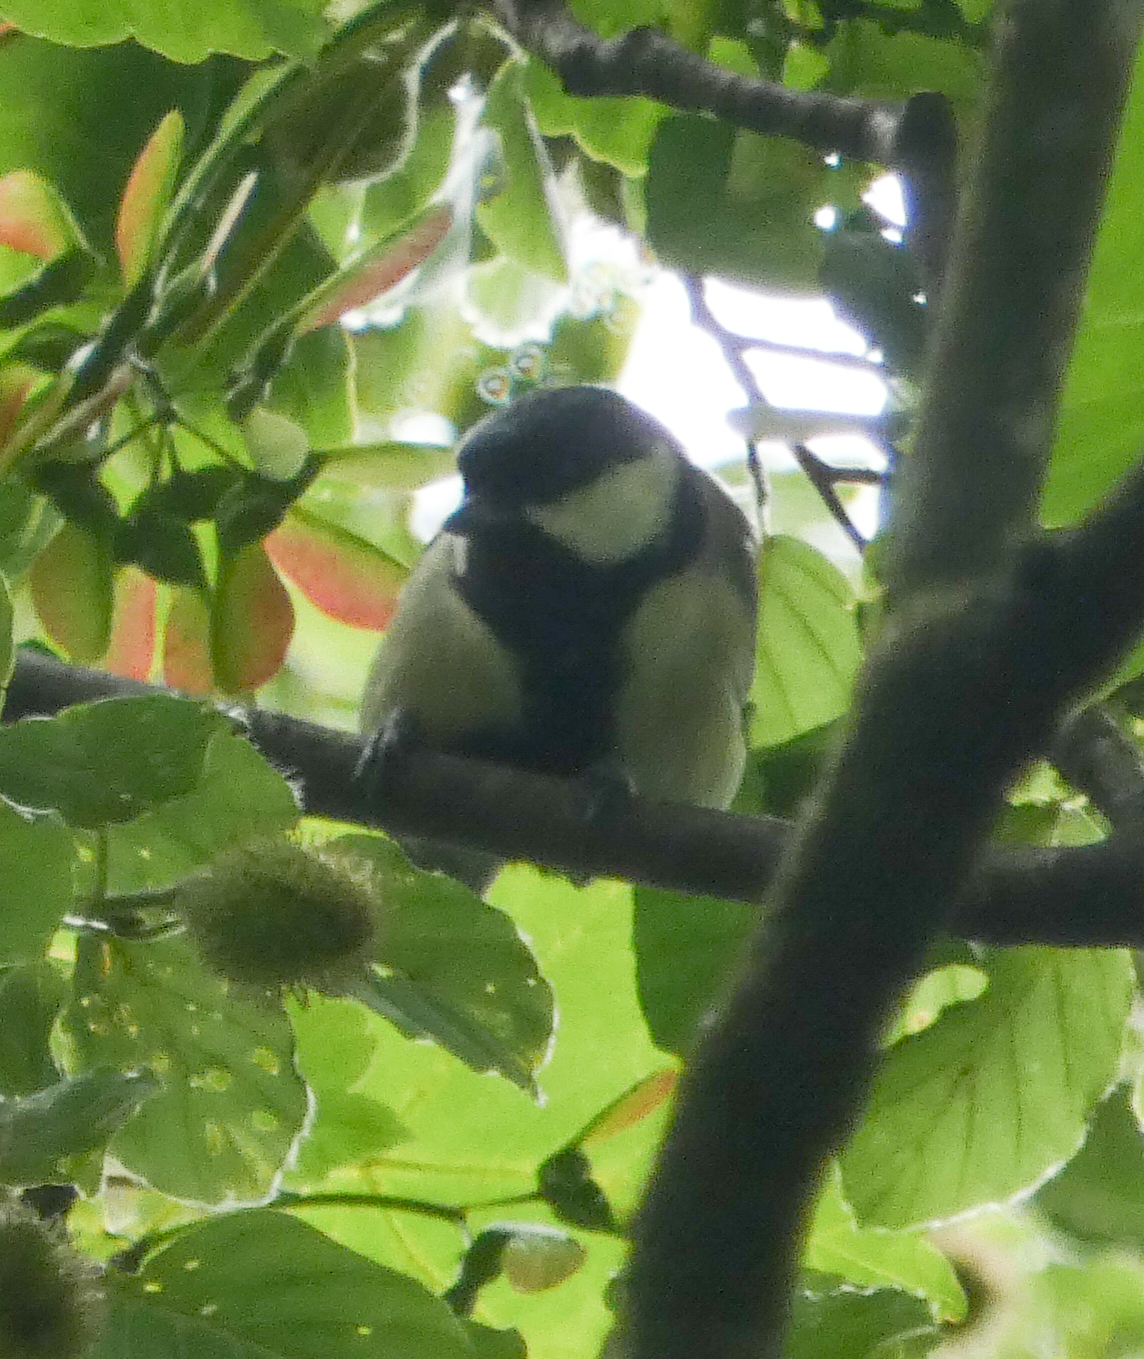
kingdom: Animalia
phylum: Chordata
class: Aves
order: Passeriformes
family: Paridae
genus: Parus
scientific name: Parus major
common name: Great tit
